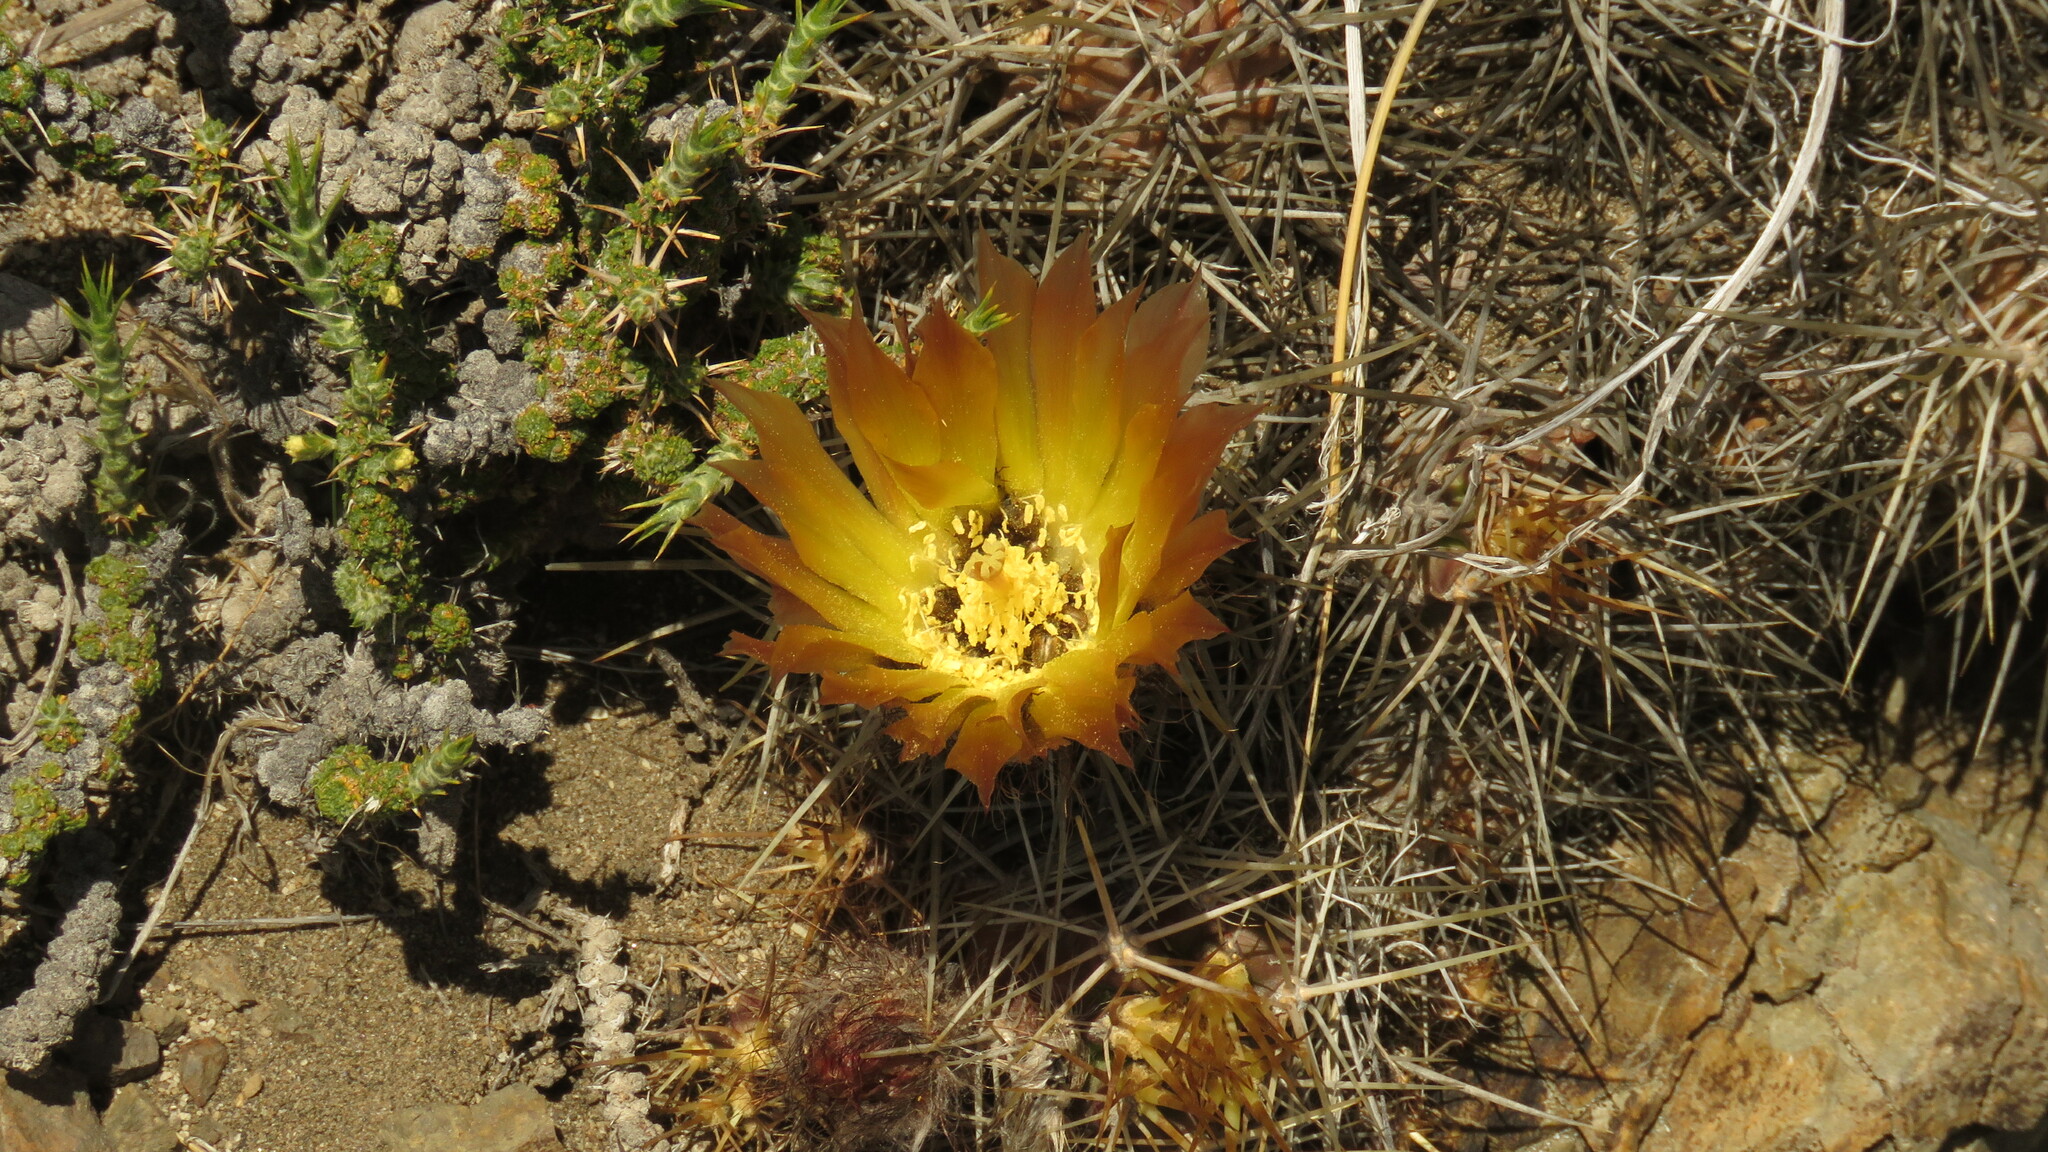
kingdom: Plantae
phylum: Tracheophyta
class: Magnoliopsida
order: Caryophyllales
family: Cactaceae
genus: Austrocactus
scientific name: Austrocactus coxii
